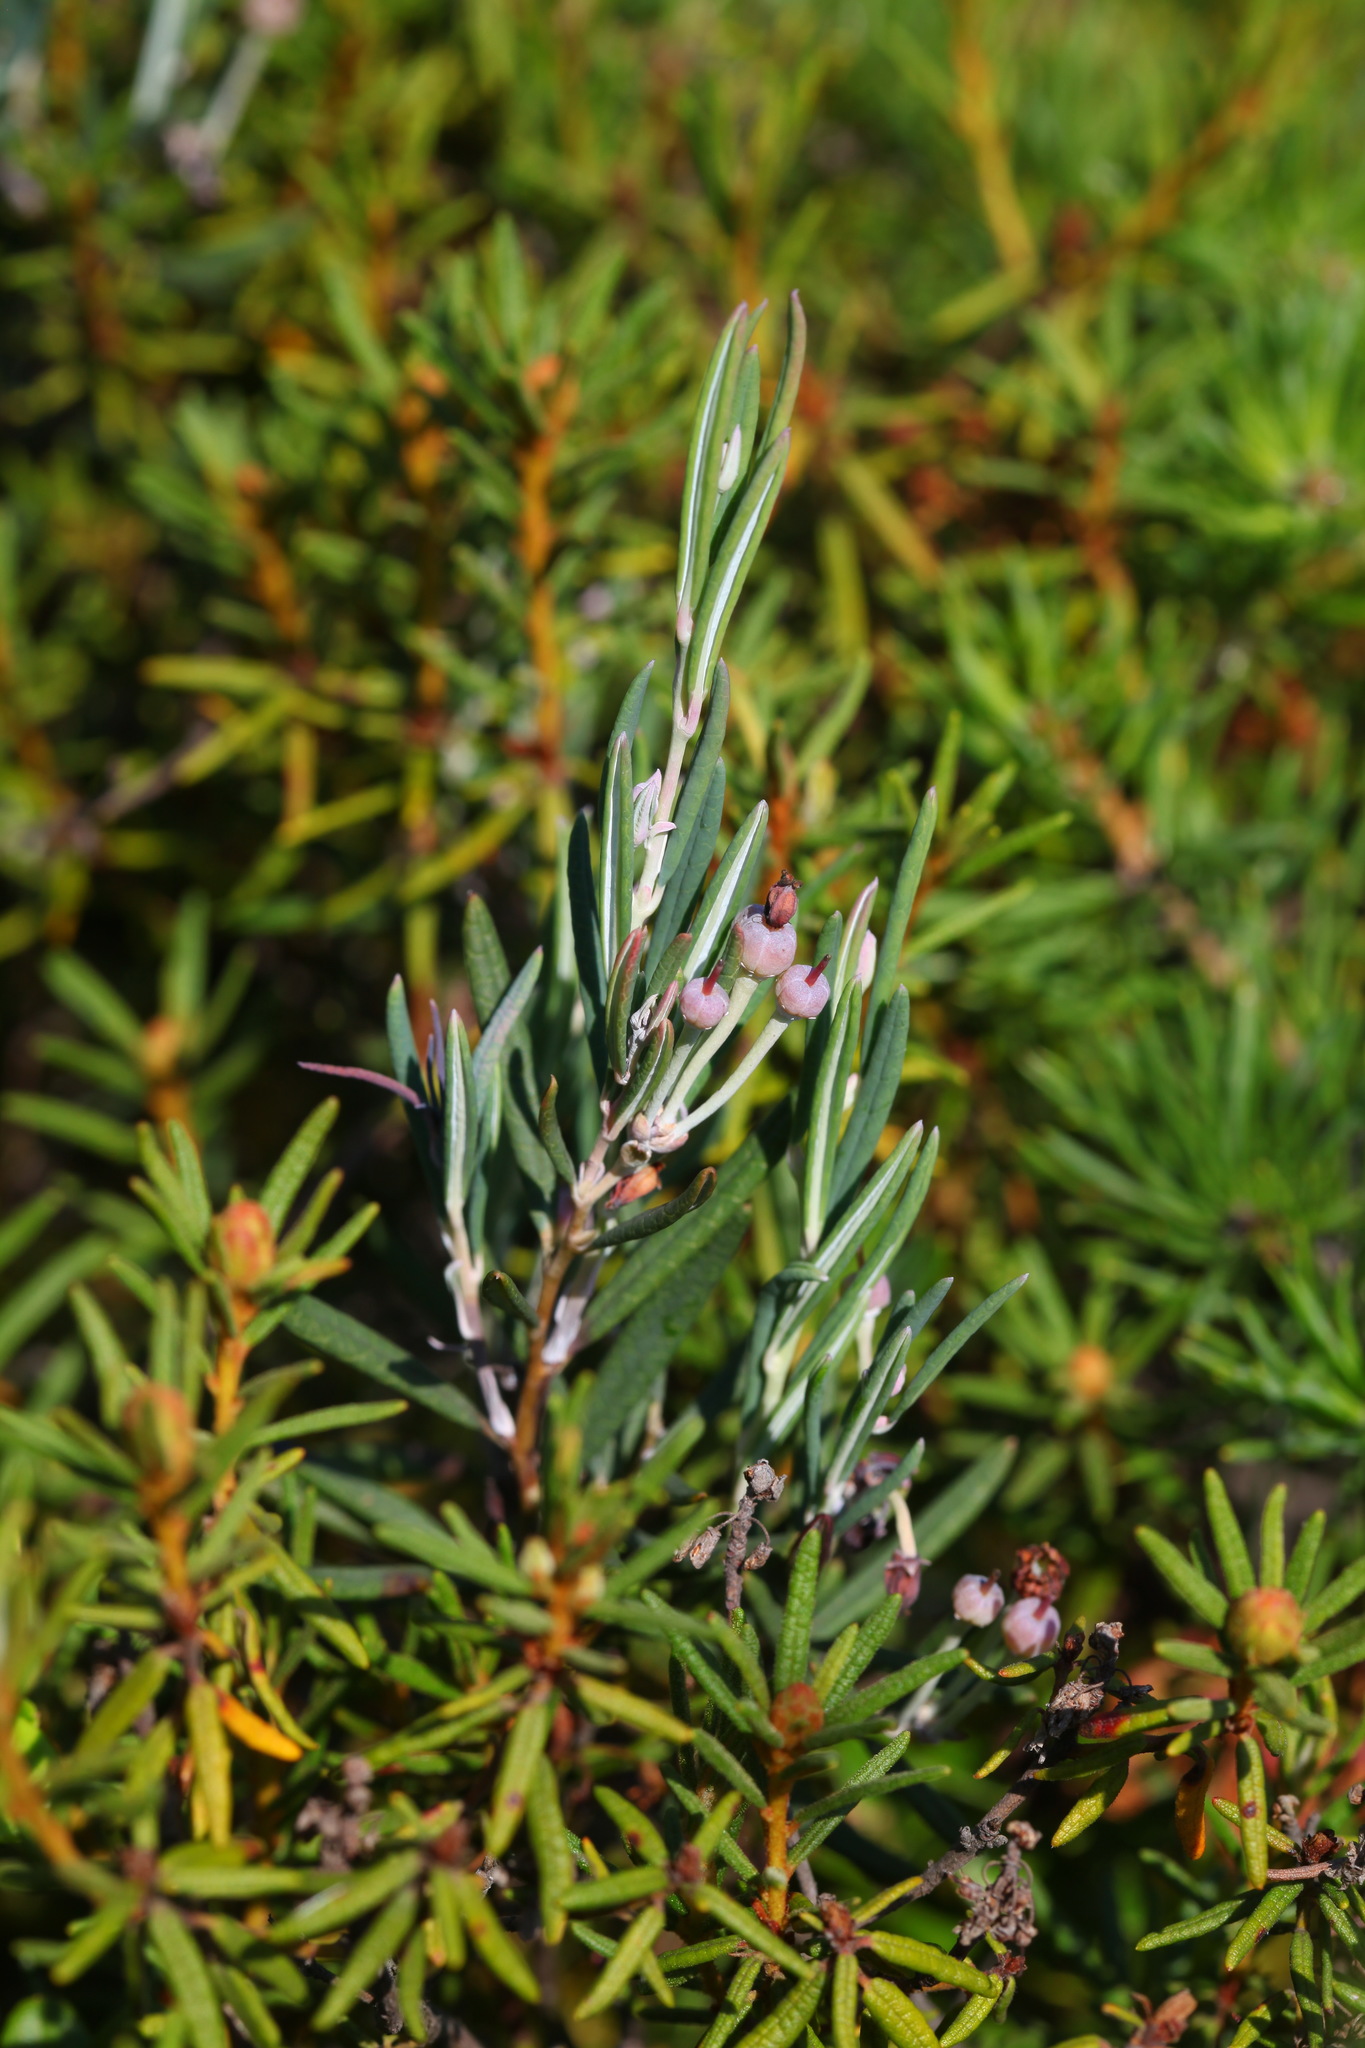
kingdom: Plantae
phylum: Tracheophyta
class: Magnoliopsida
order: Ericales
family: Ericaceae
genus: Andromeda
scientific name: Andromeda polifolia
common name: Bog-rosemary
